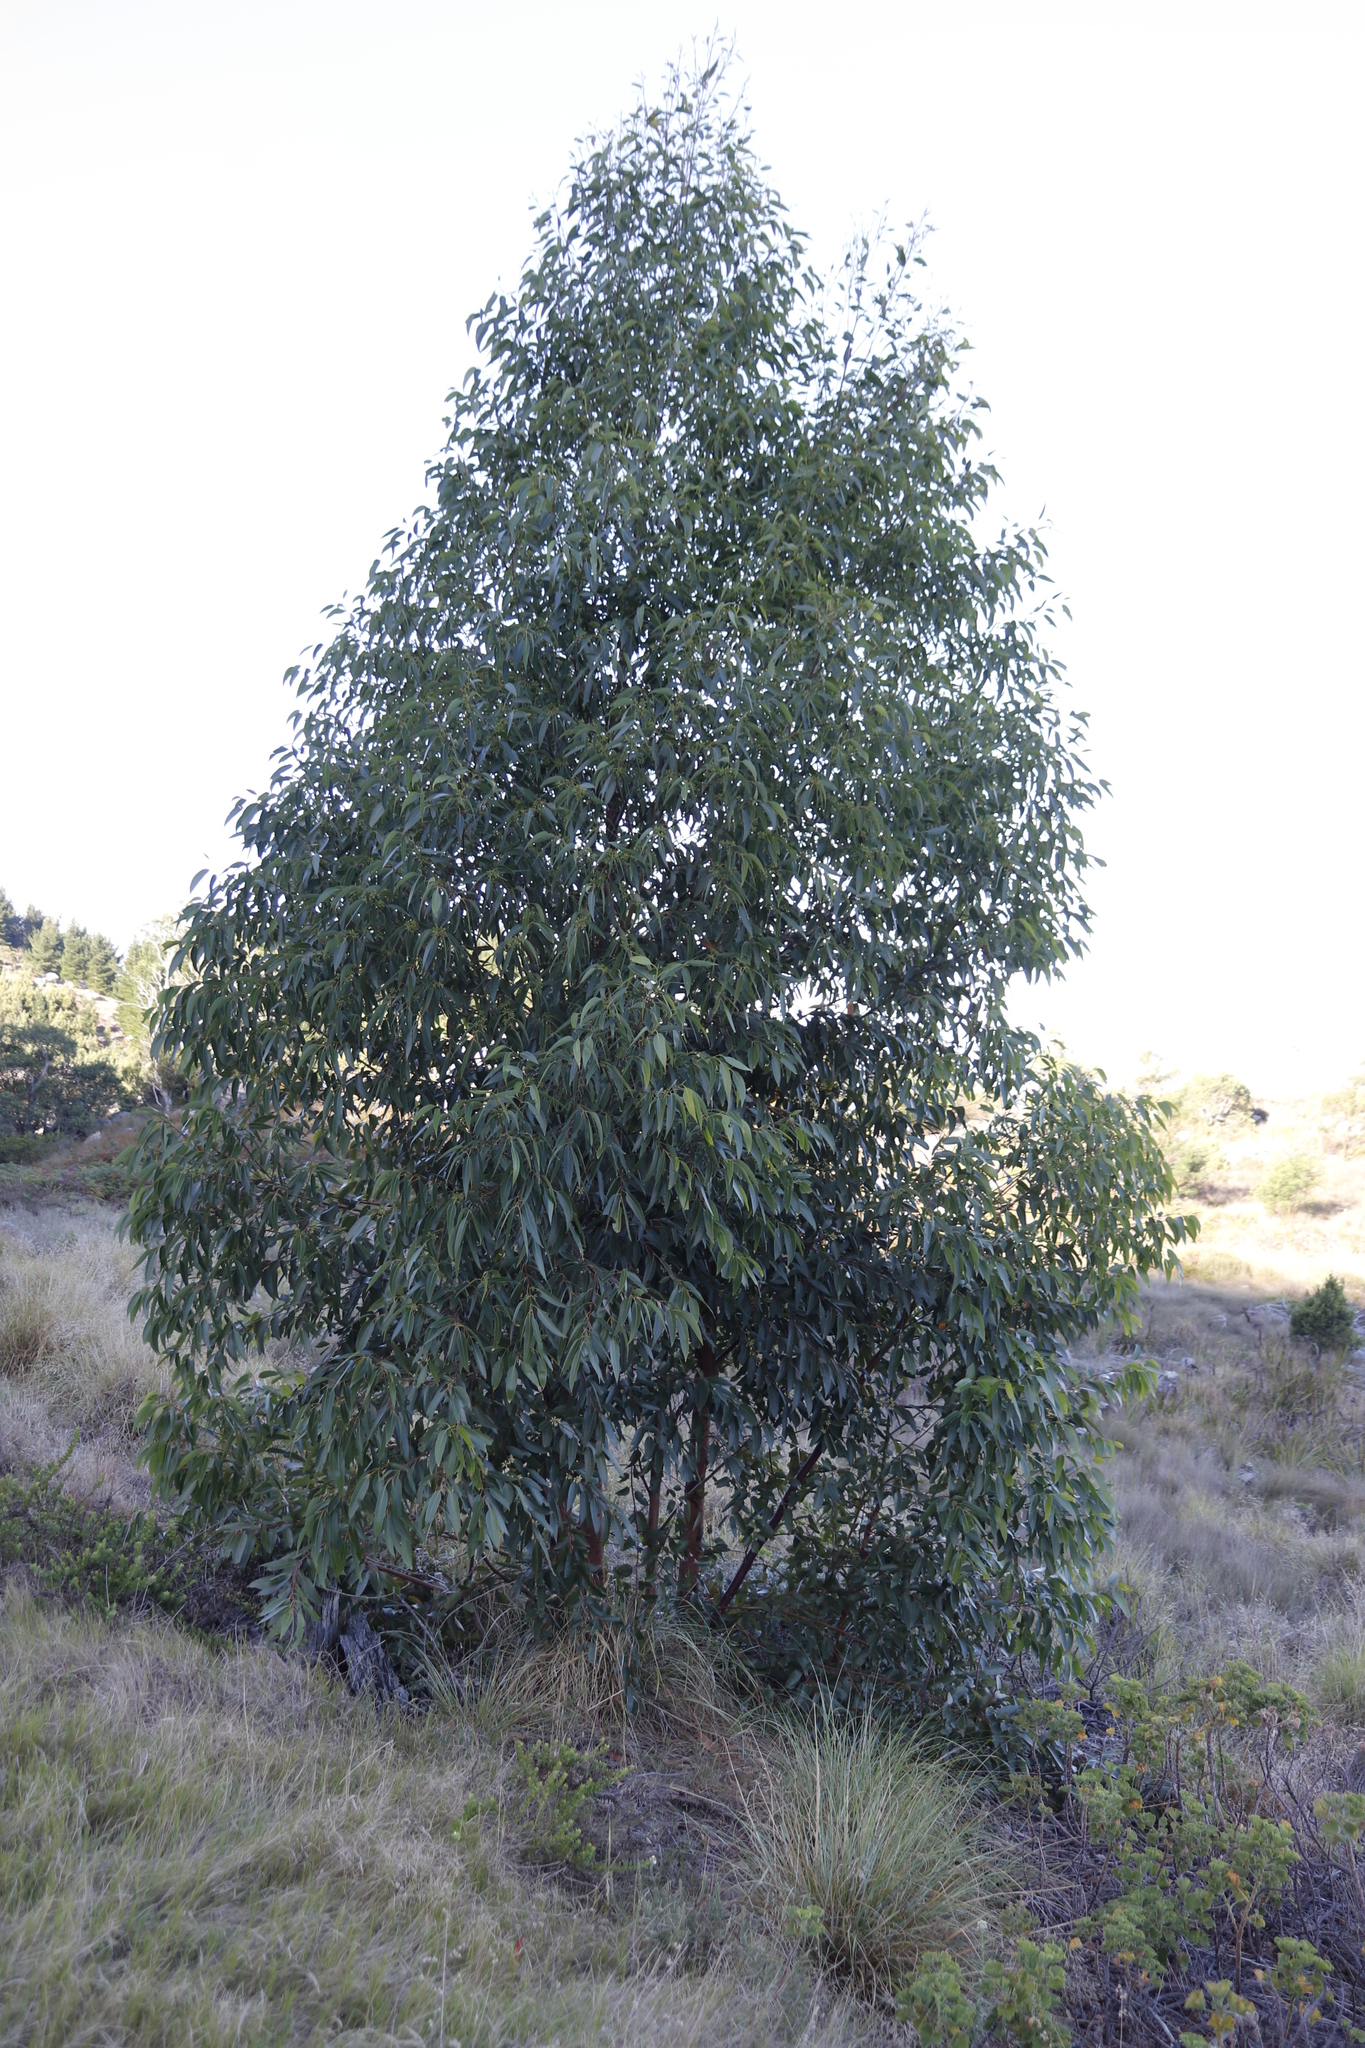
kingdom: Plantae
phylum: Tracheophyta
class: Magnoliopsida
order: Myrtales
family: Myrtaceae
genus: Eucalyptus
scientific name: Eucalyptus camaldulensis
